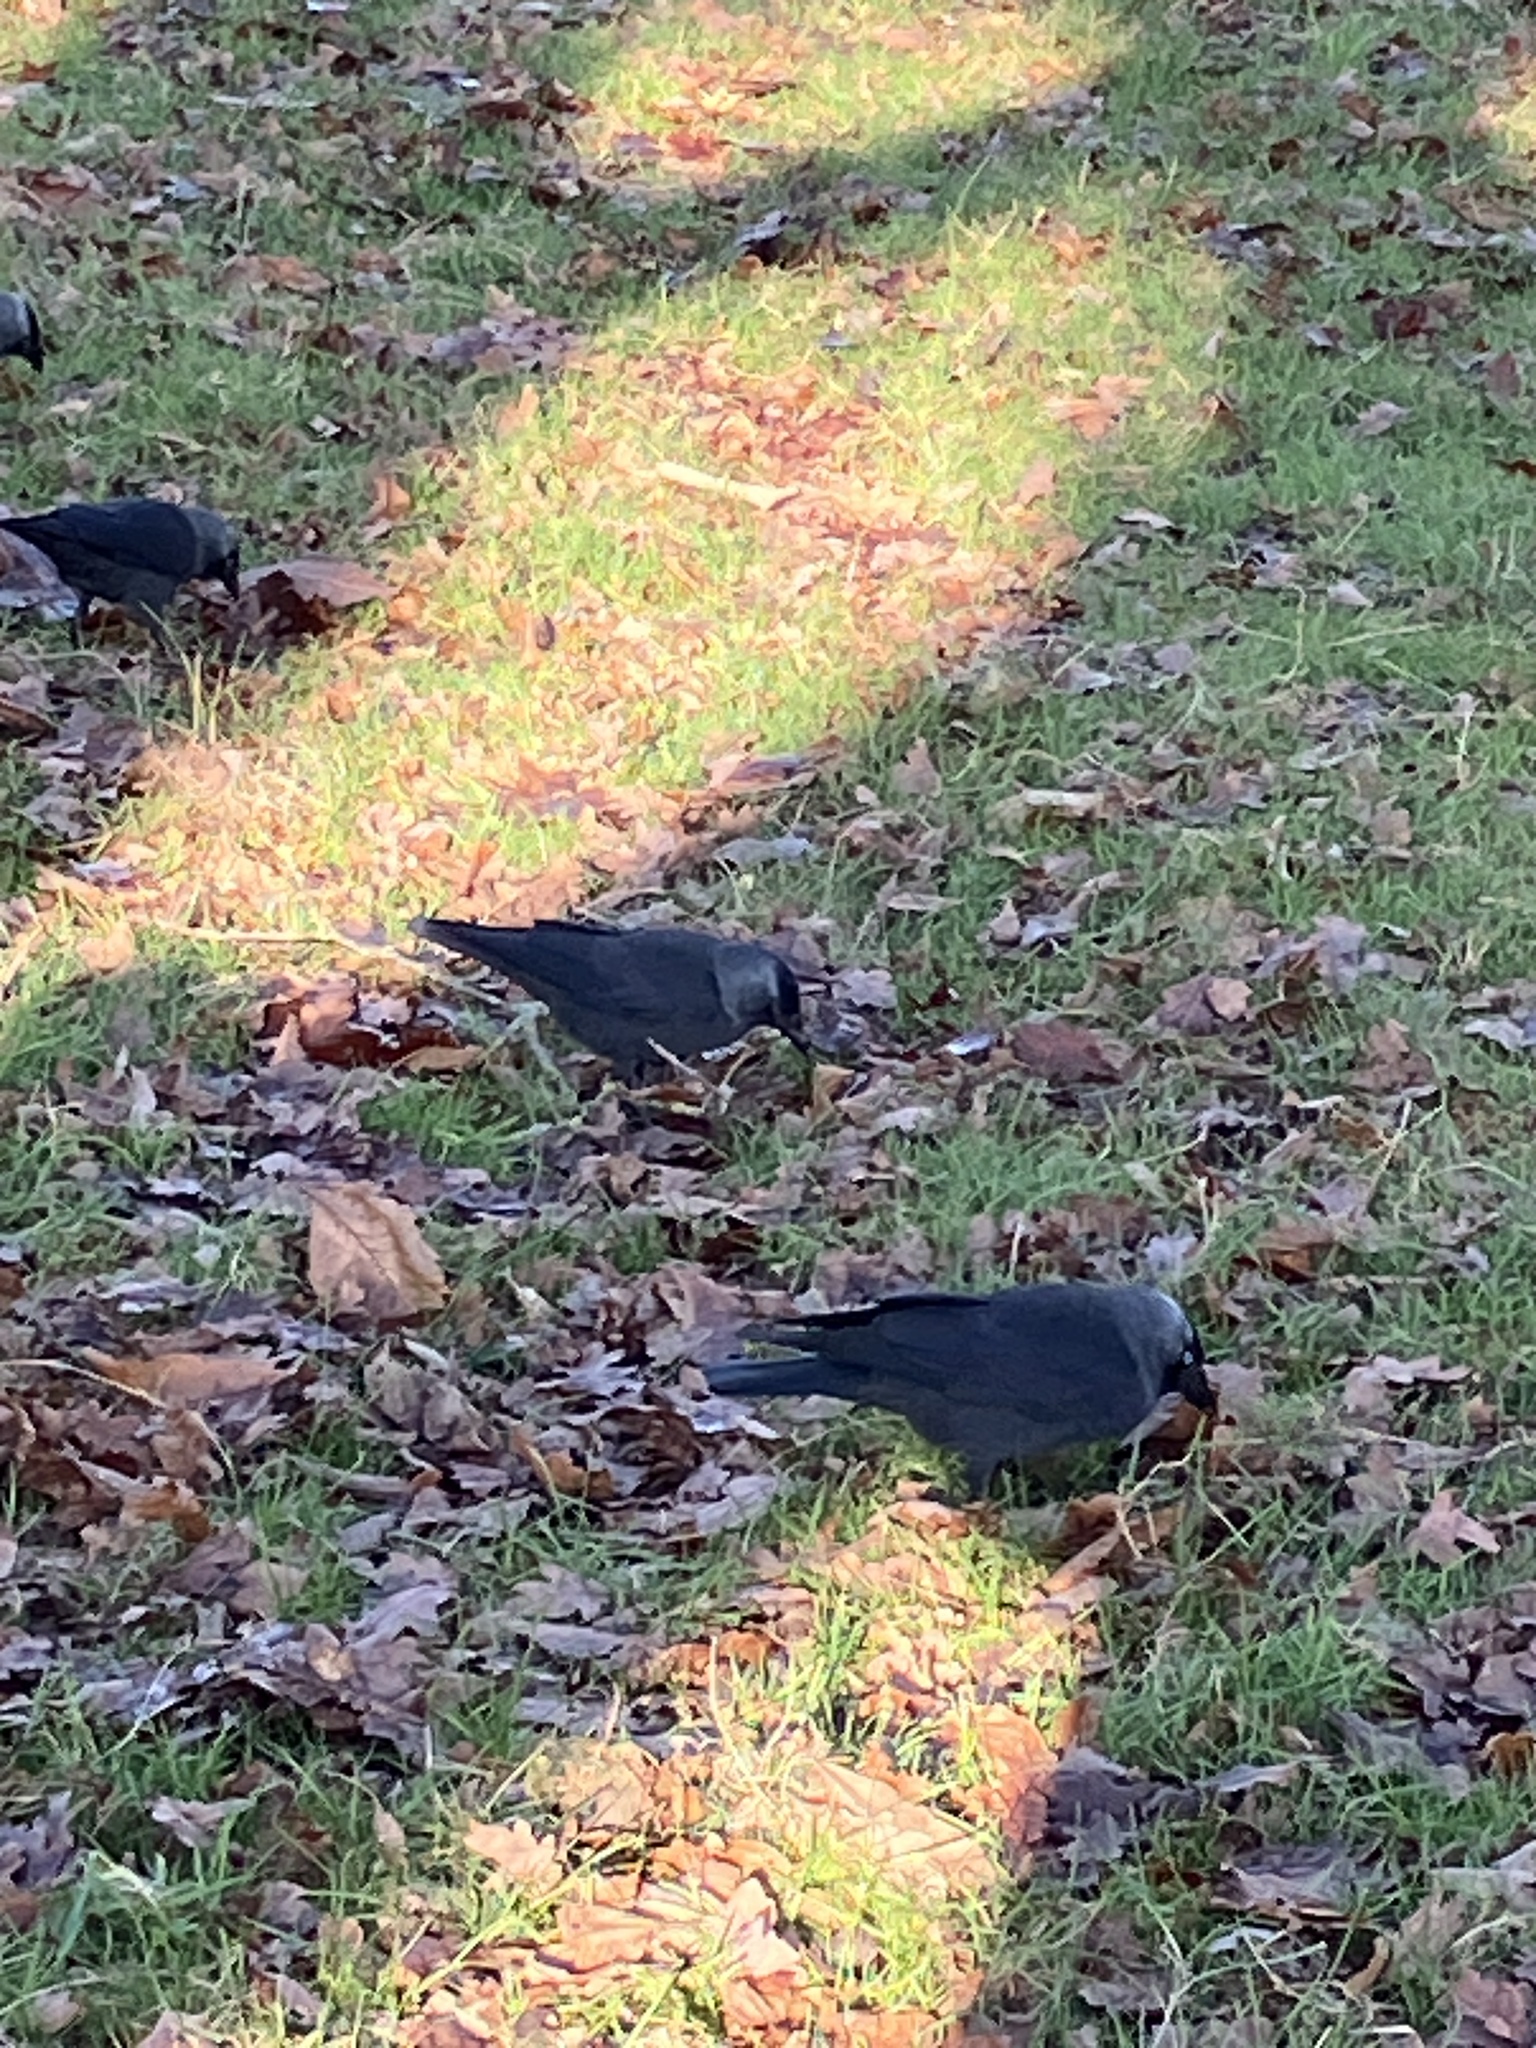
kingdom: Animalia
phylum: Chordata
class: Aves
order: Passeriformes
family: Corvidae
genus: Coloeus
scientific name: Coloeus monedula
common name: Western jackdaw
